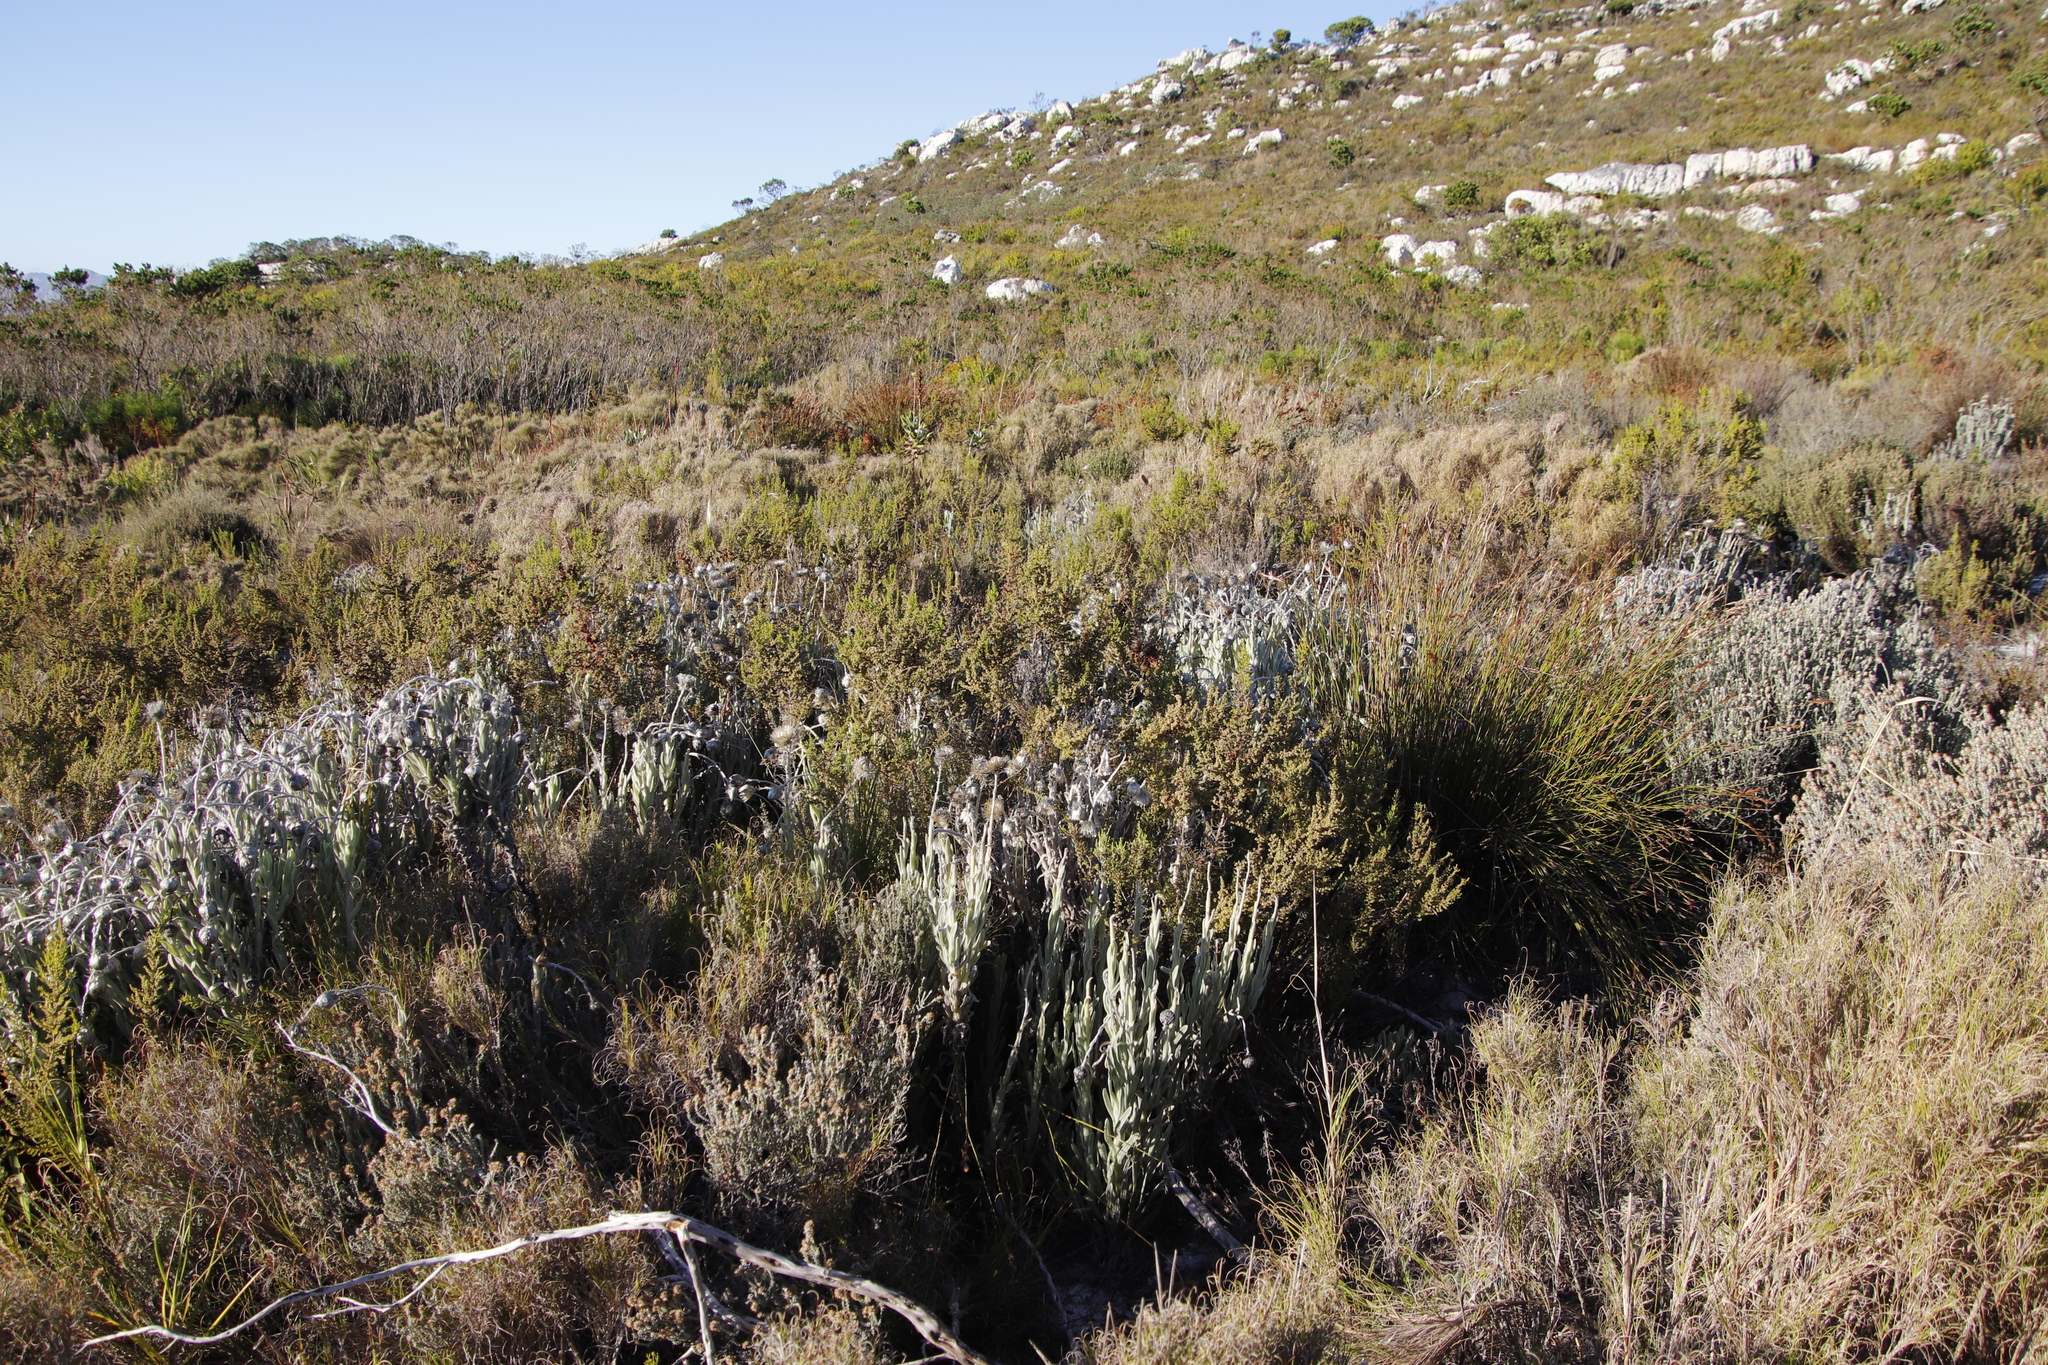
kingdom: Plantae
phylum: Tracheophyta
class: Magnoliopsida
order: Asterales
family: Asteraceae
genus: Syncarpha
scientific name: Syncarpha vestita
